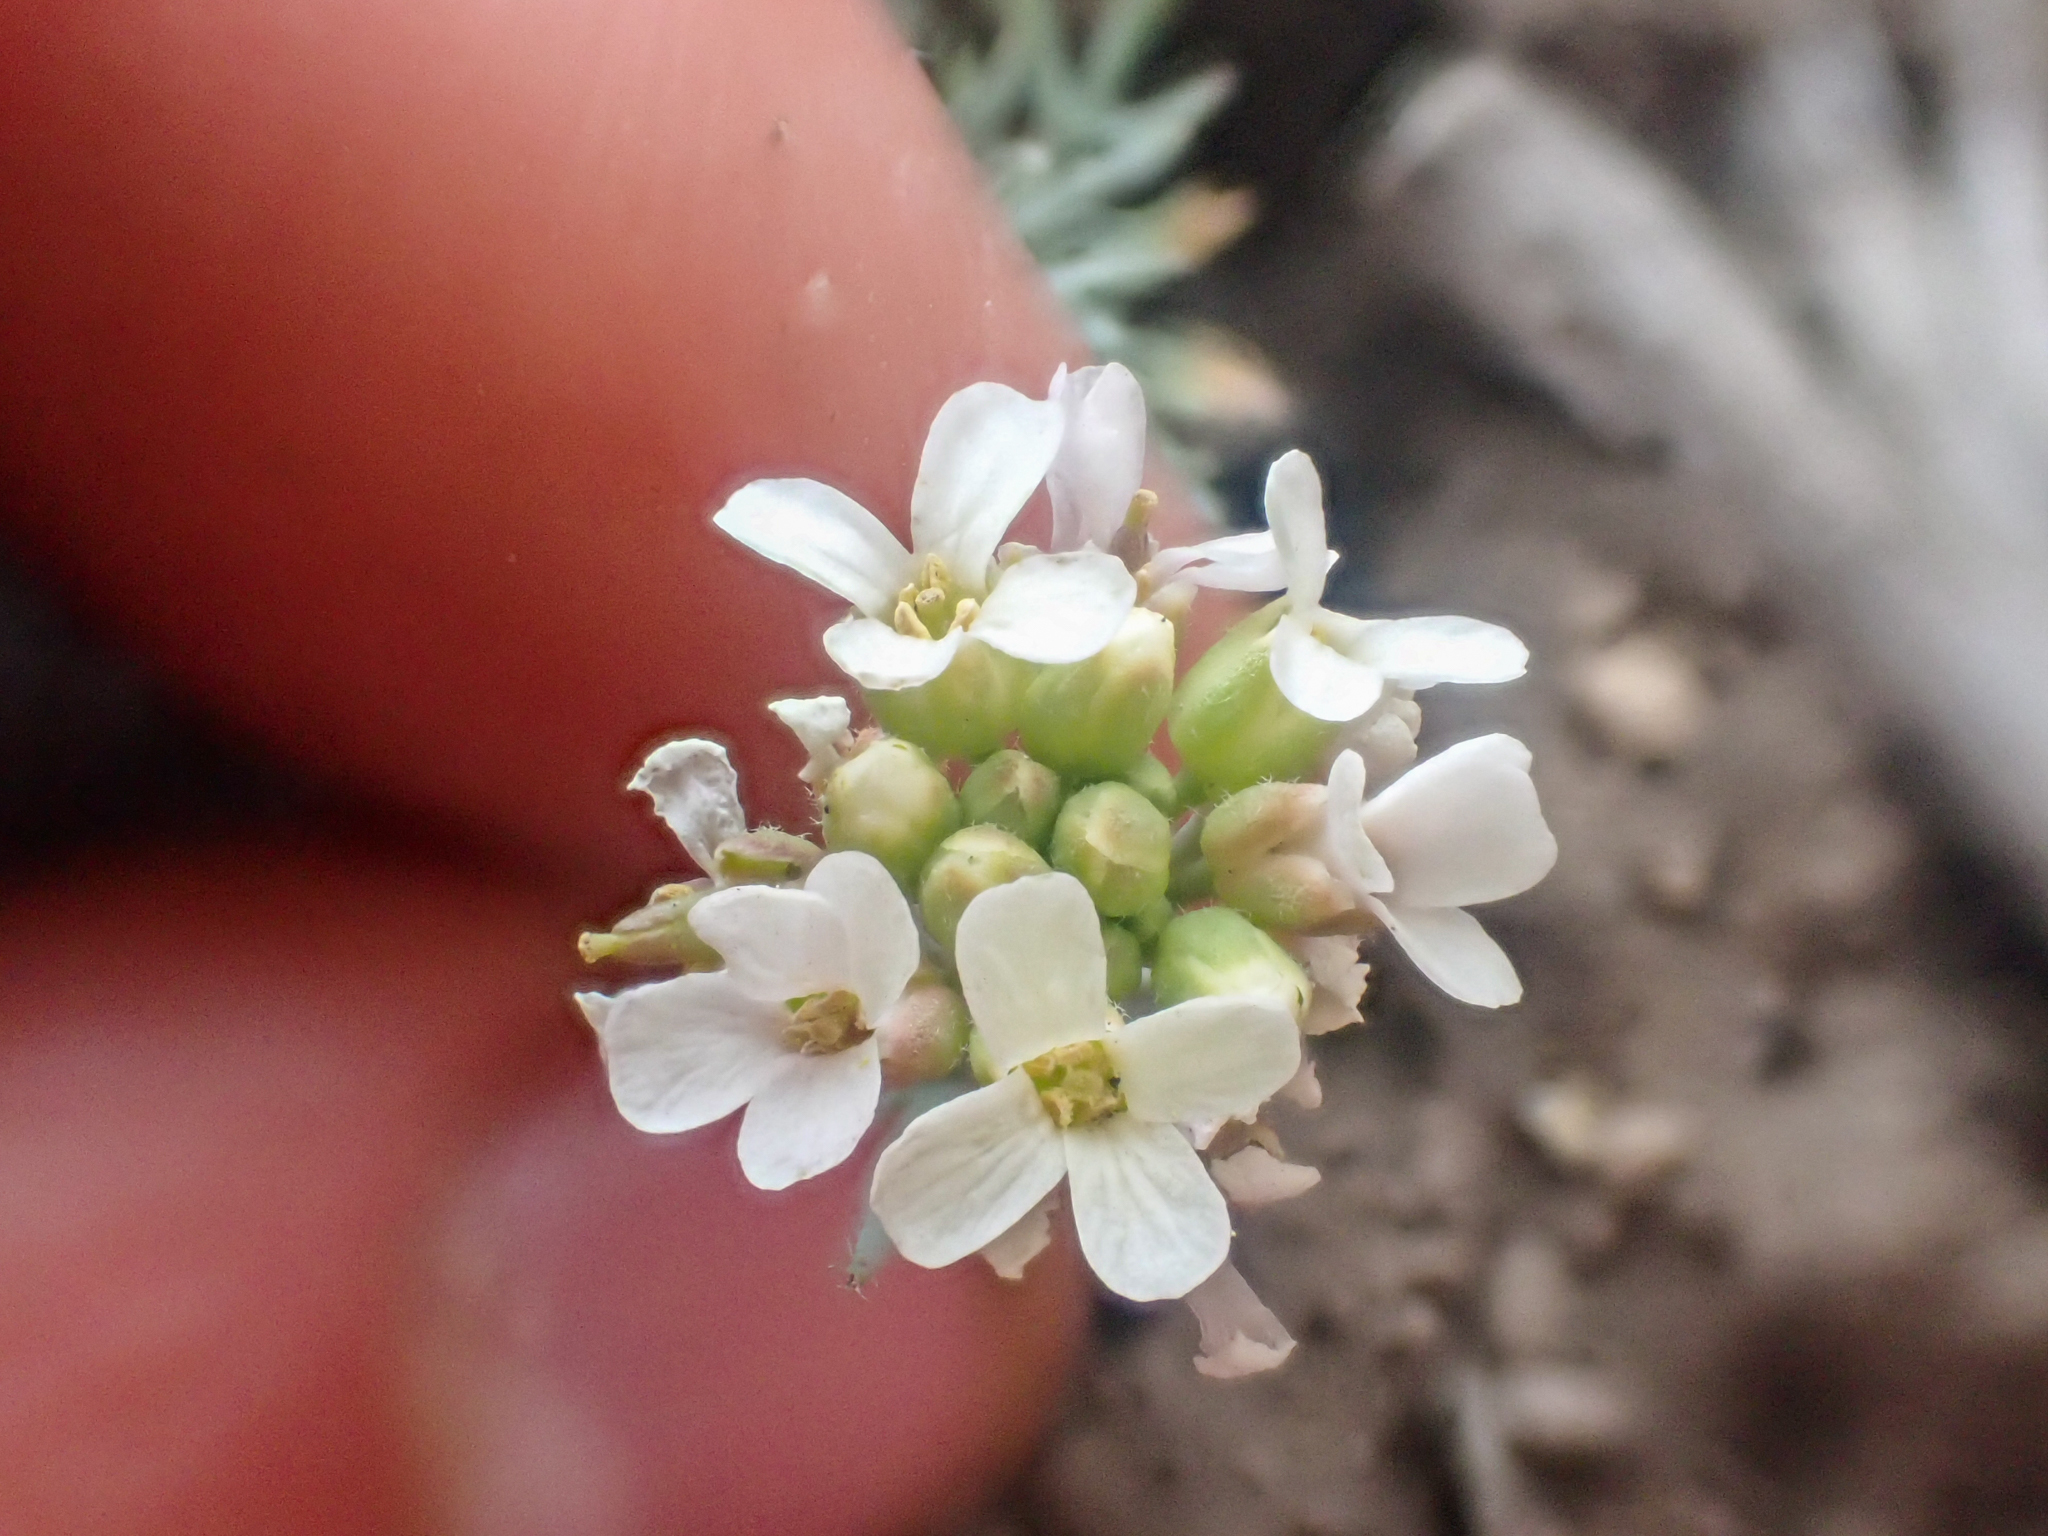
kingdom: Plantae
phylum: Tracheophyta
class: Magnoliopsida
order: Brassicales
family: Brassicaceae
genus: Polyctenium
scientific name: Polyctenium fremontii
